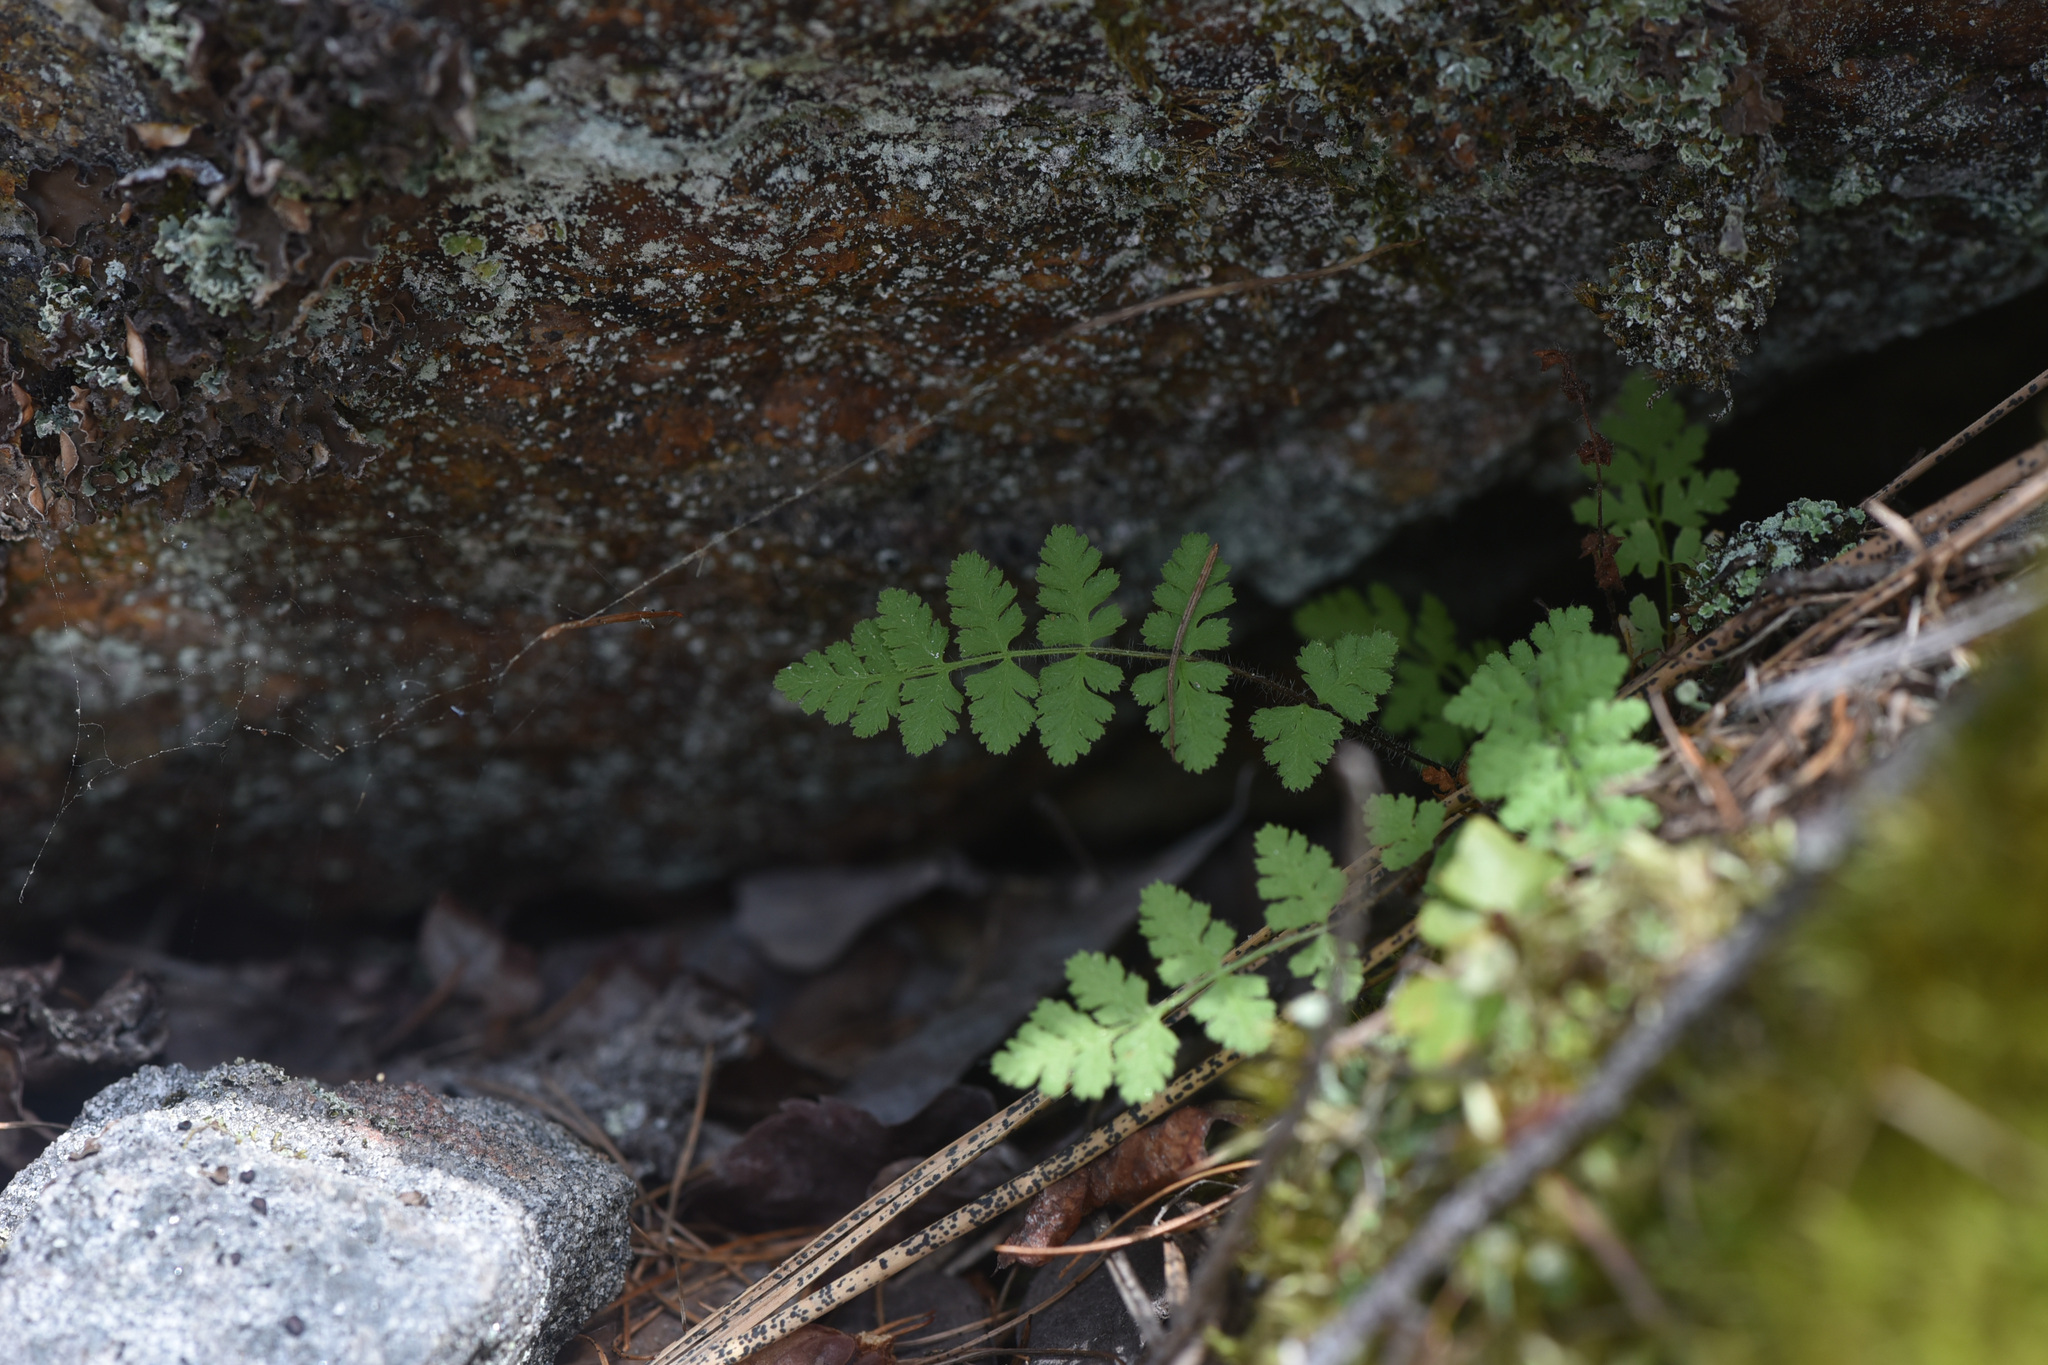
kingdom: Plantae
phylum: Tracheophyta
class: Polypodiopsida
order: Polypodiales
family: Woodsiaceae
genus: Physematium
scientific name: Physematium scopulinum
